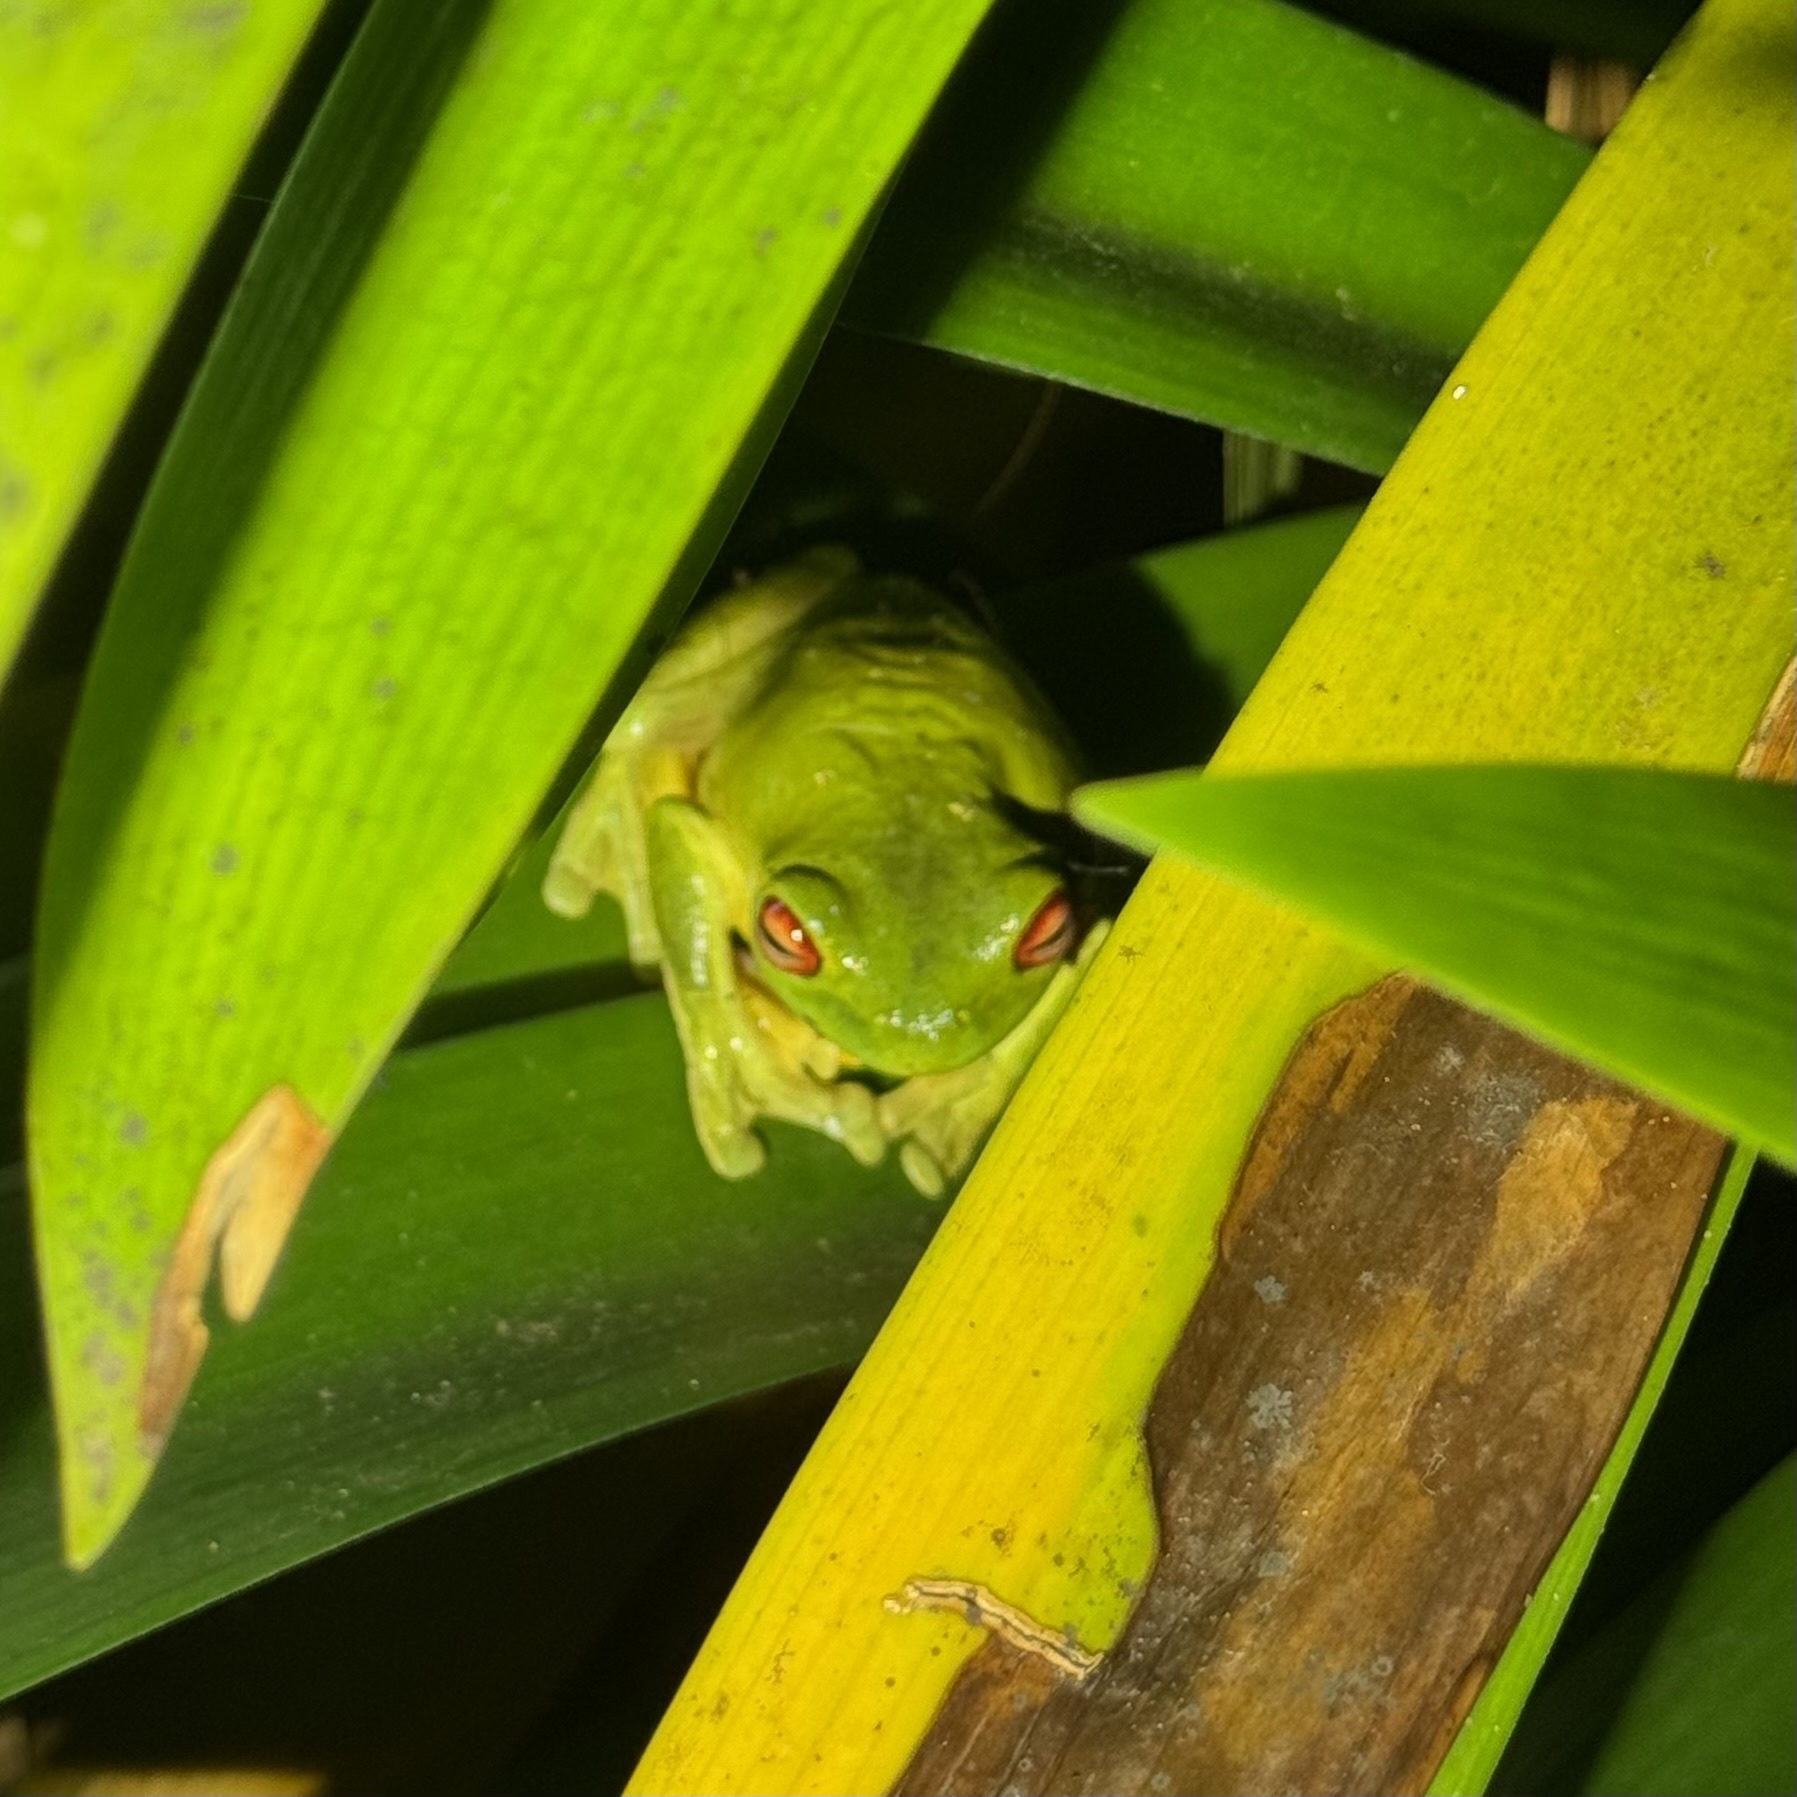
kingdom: Animalia
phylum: Chordata
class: Amphibia
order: Anura
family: Pelodryadidae
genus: Ranoidea
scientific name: Ranoidea chloris
